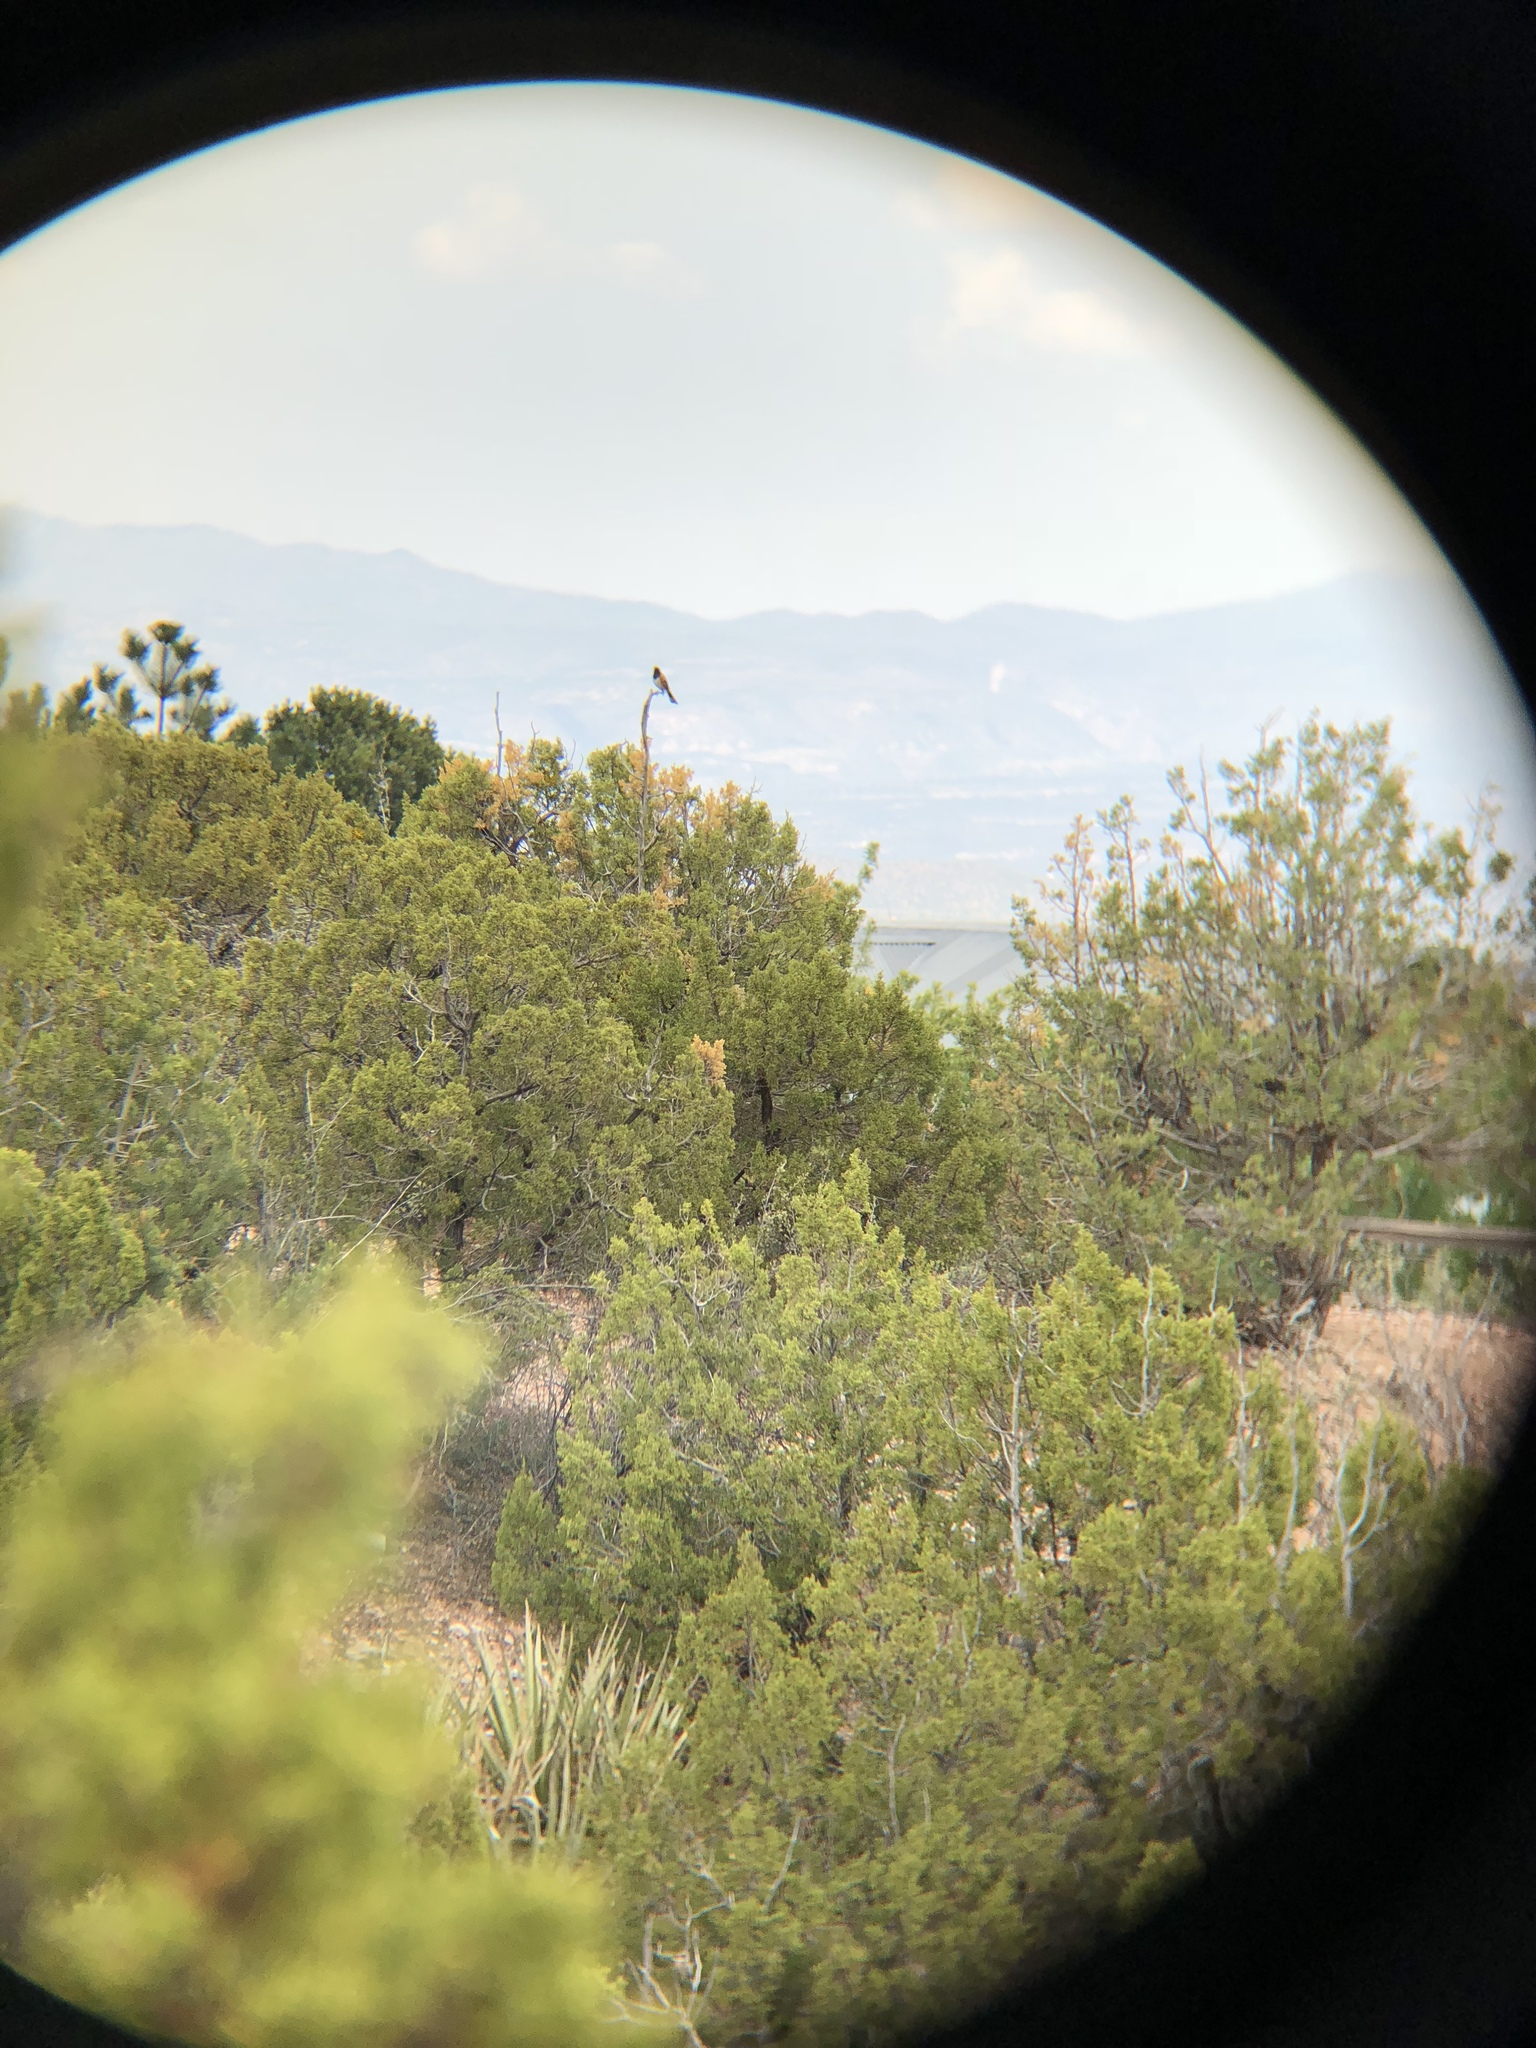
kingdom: Animalia
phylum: Chordata
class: Aves
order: Passeriformes
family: Passerellidae
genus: Pipilo
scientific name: Pipilo maculatus
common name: Spotted towhee
